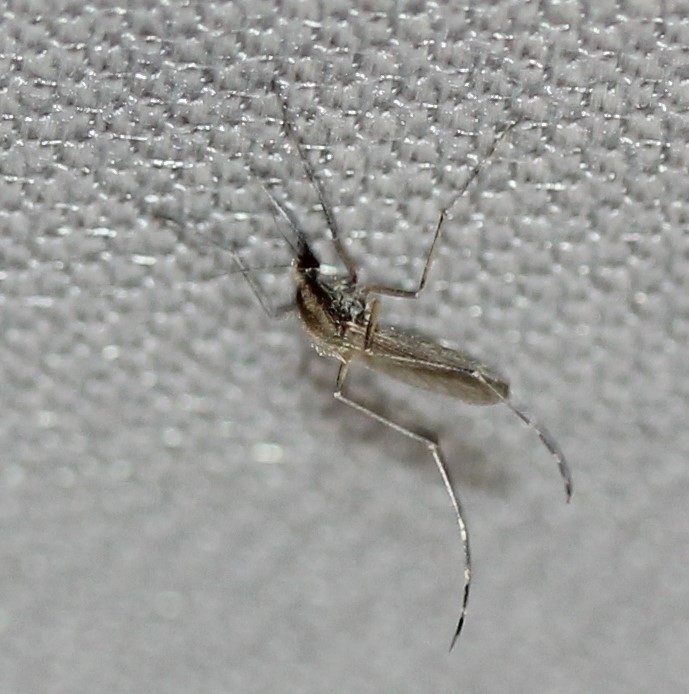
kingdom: Animalia
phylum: Arthropoda
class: Insecta
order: Diptera
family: Culicidae
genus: Aedes
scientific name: Aedes dorsalis
